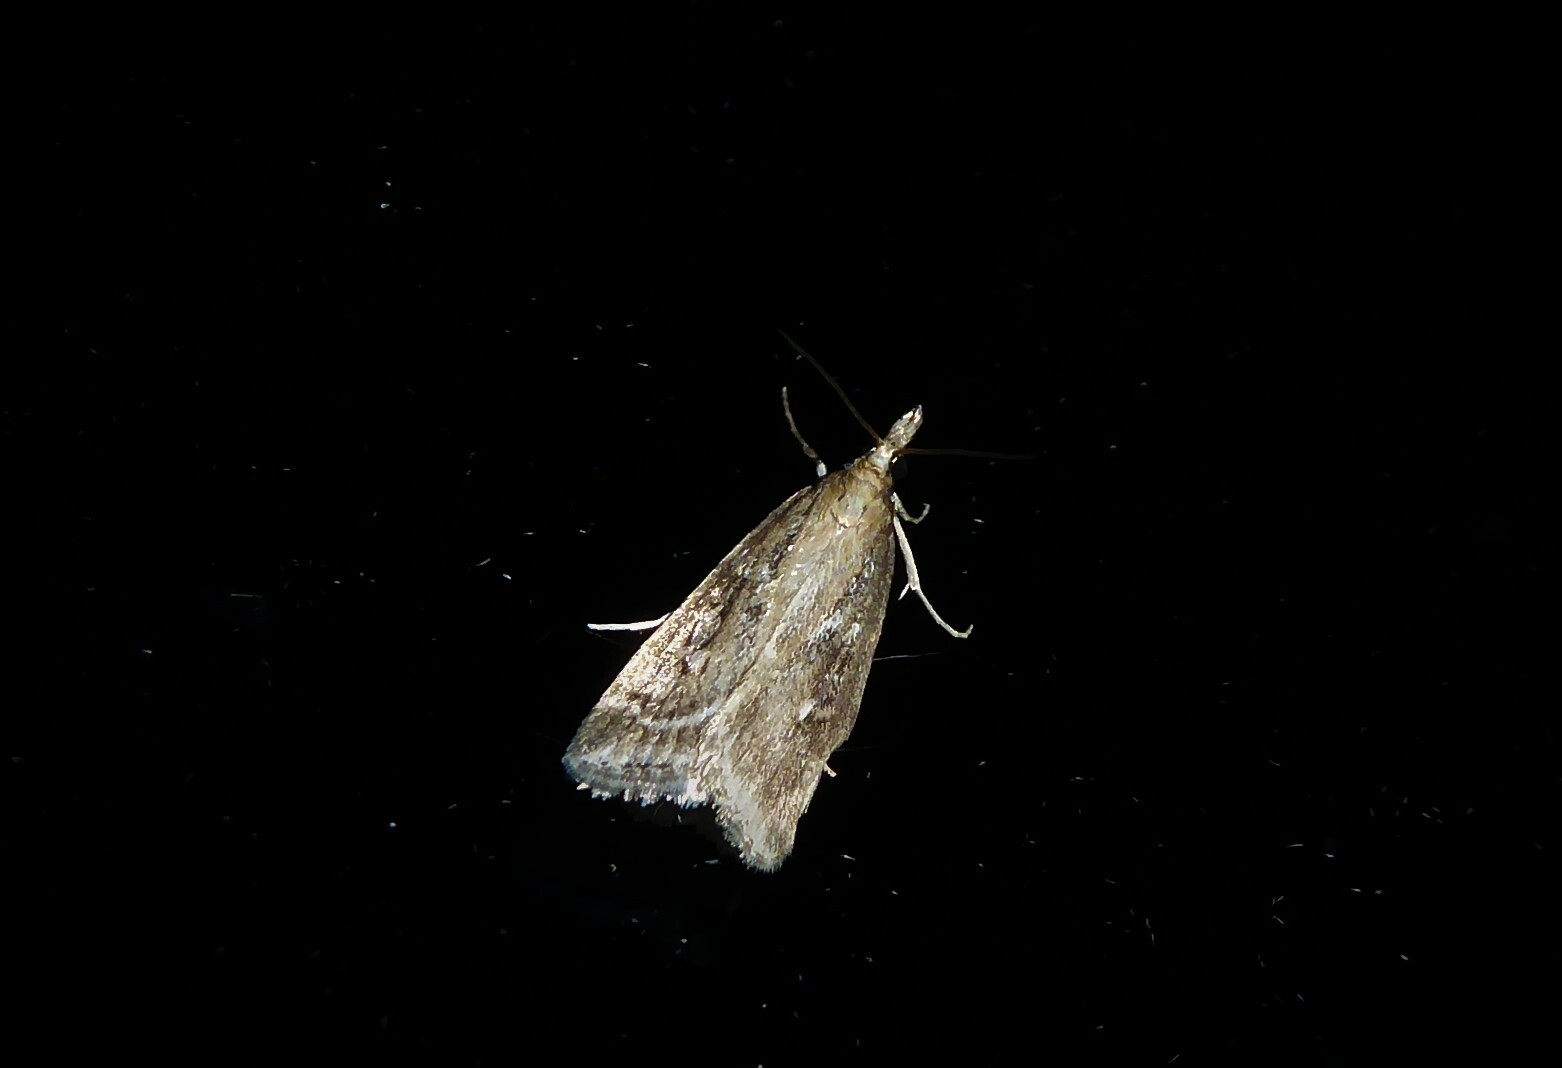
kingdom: Animalia
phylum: Arthropoda
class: Insecta
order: Lepidoptera
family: Crambidae
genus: Eudonia
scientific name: Eudonia octophora
